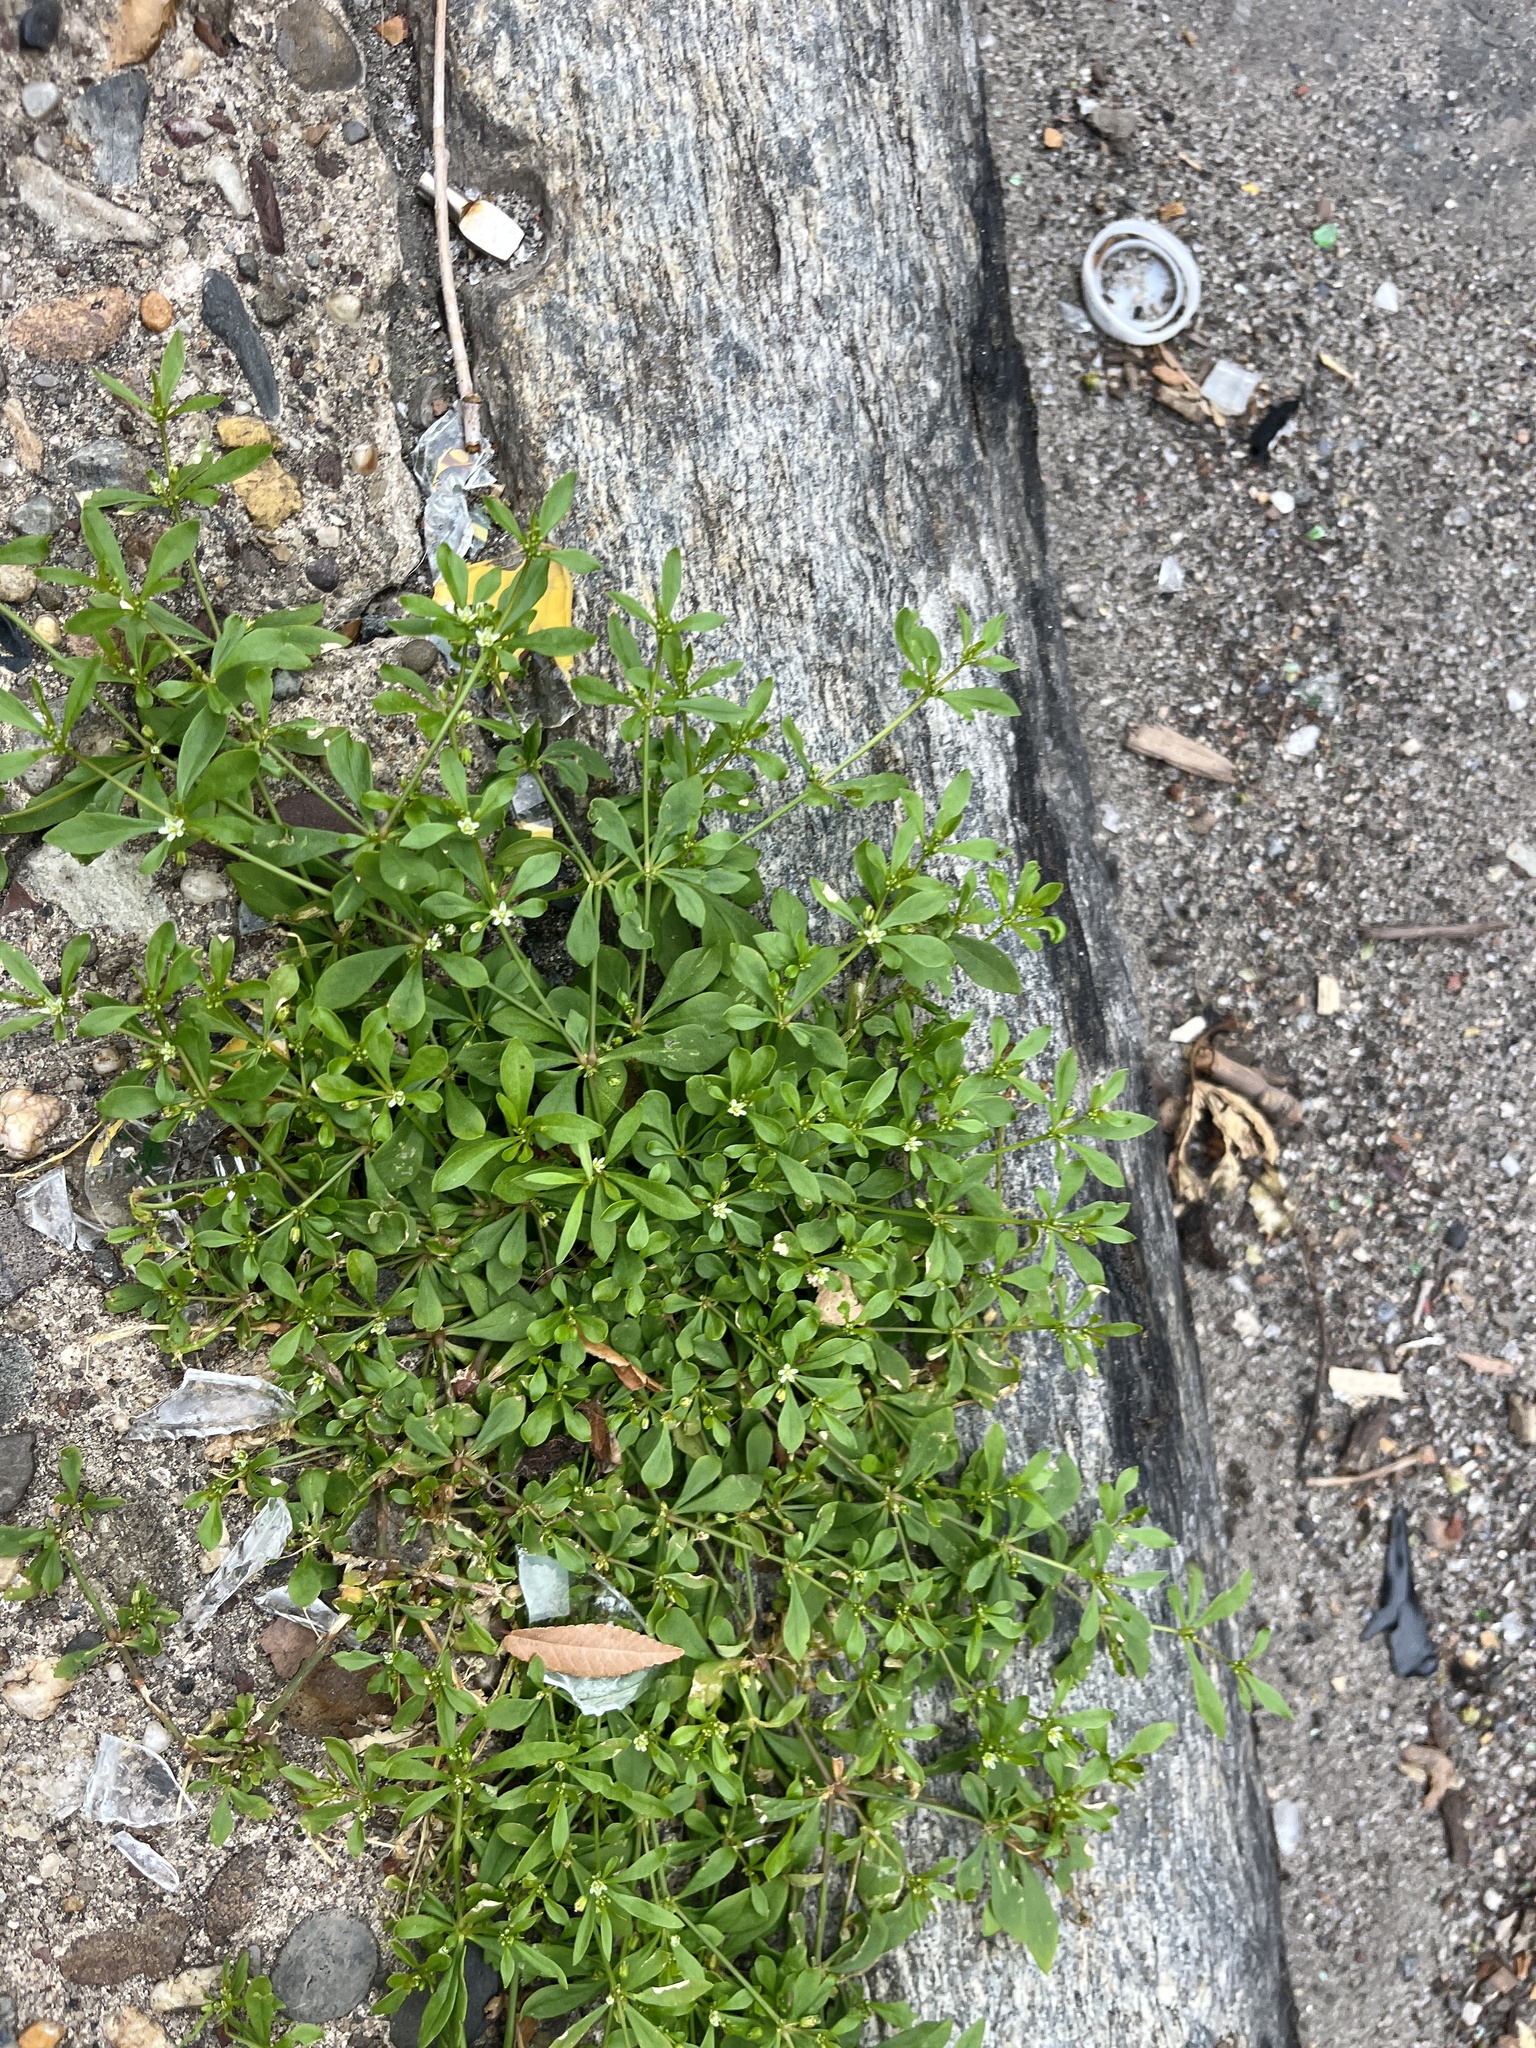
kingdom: Plantae
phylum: Tracheophyta
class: Magnoliopsida
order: Caryophyllales
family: Molluginaceae
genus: Mollugo
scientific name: Mollugo verticillata
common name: Green carpetweed
